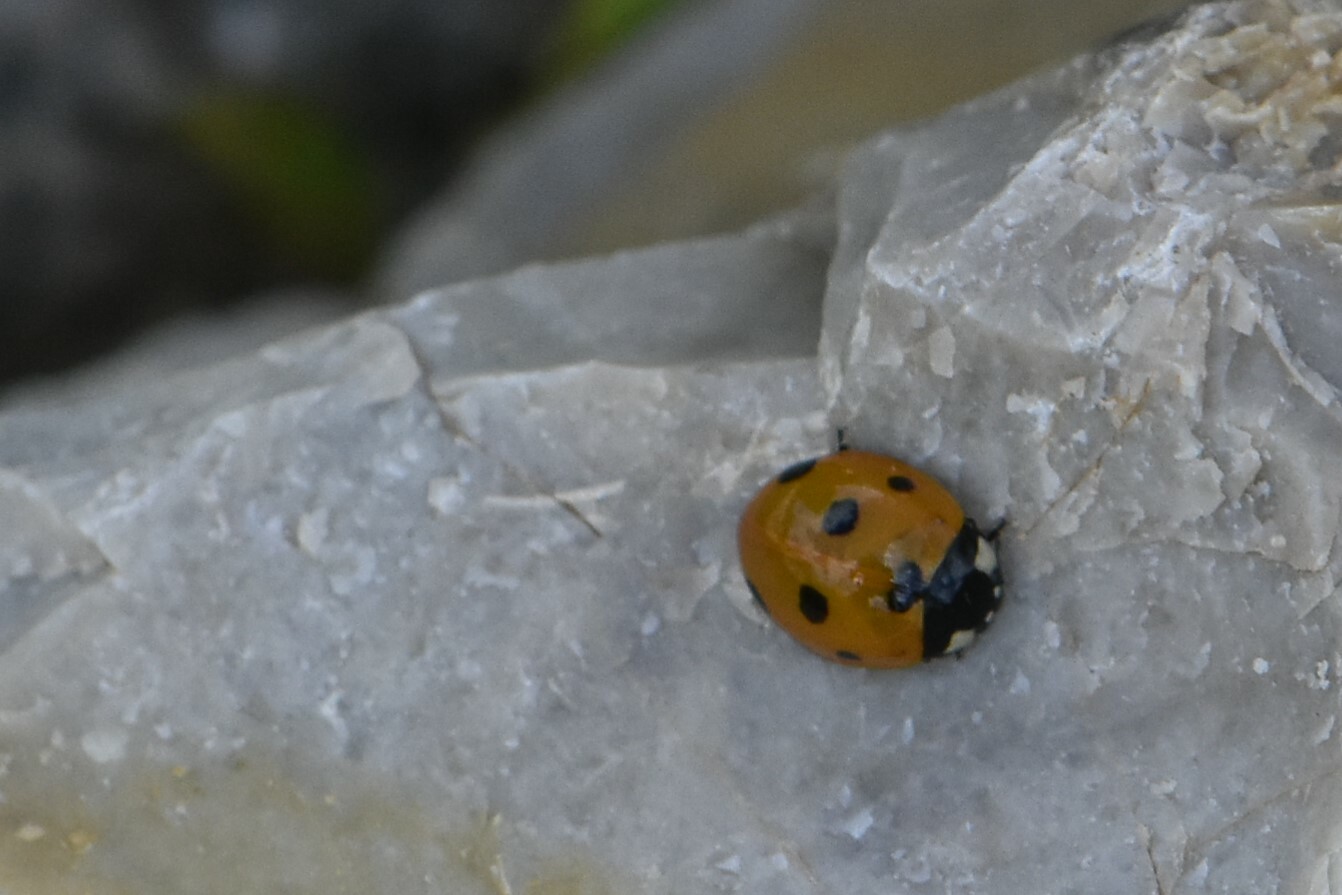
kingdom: Animalia
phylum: Arthropoda
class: Insecta
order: Coleoptera
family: Coccinellidae
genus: Coccinella
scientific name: Coccinella septempunctata
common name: Sevenspotted lady beetle
